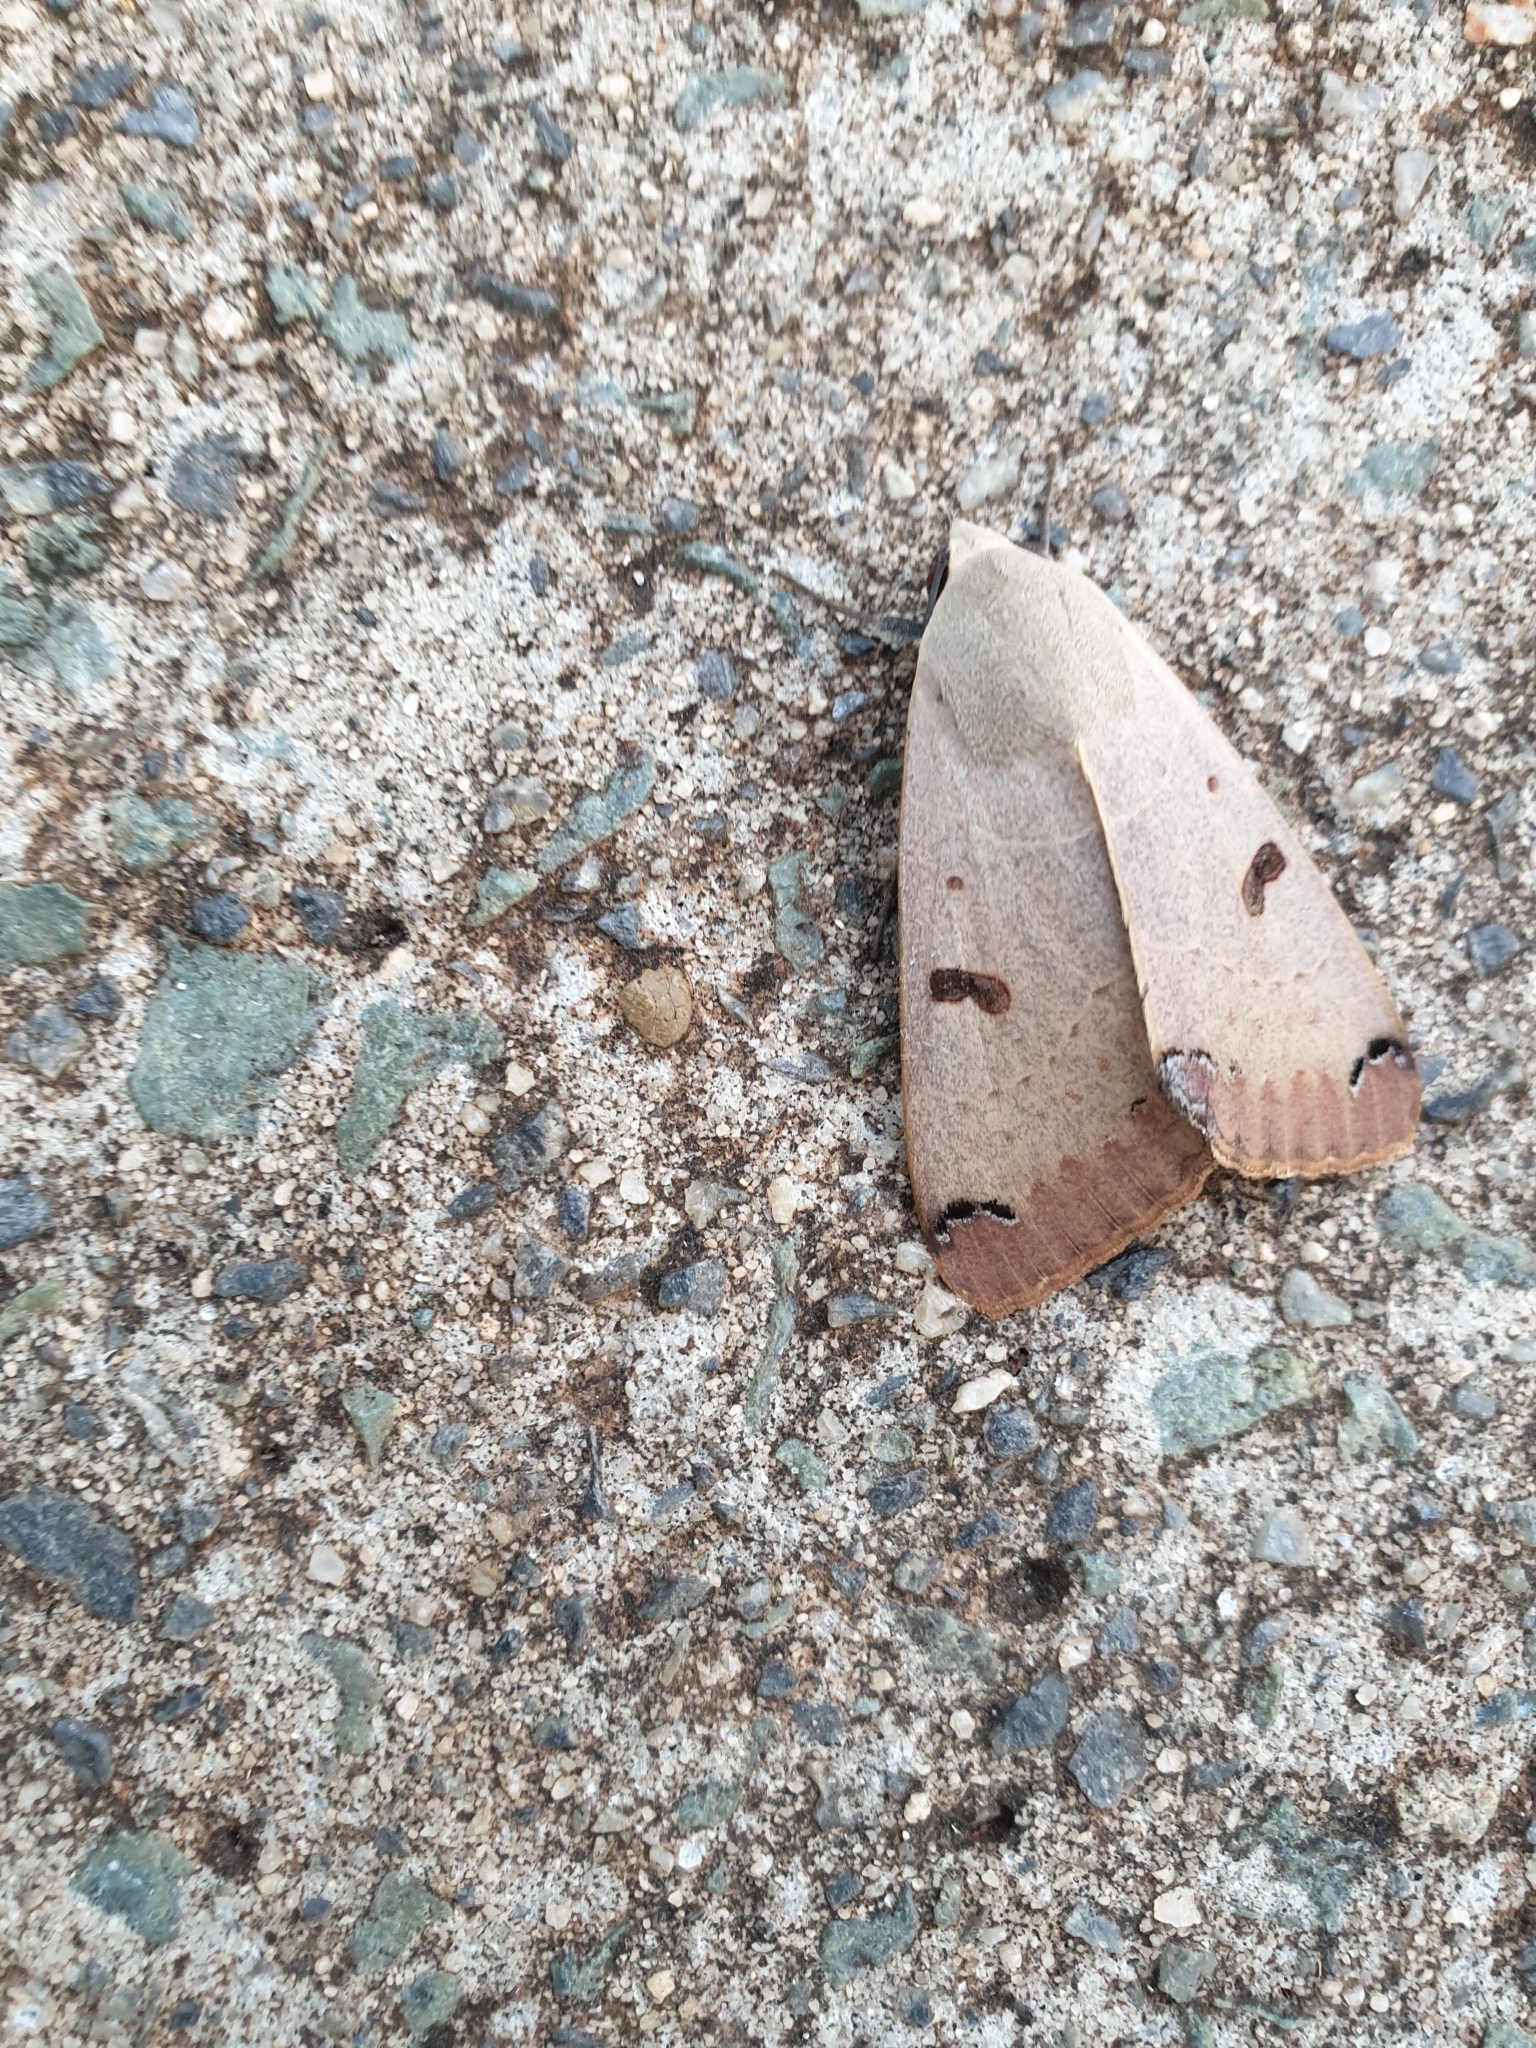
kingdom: Animalia
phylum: Arthropoda
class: Insecta
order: Lepidoptera
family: Erebidae
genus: Ophiusa
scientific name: Ophiusa parcemacula
